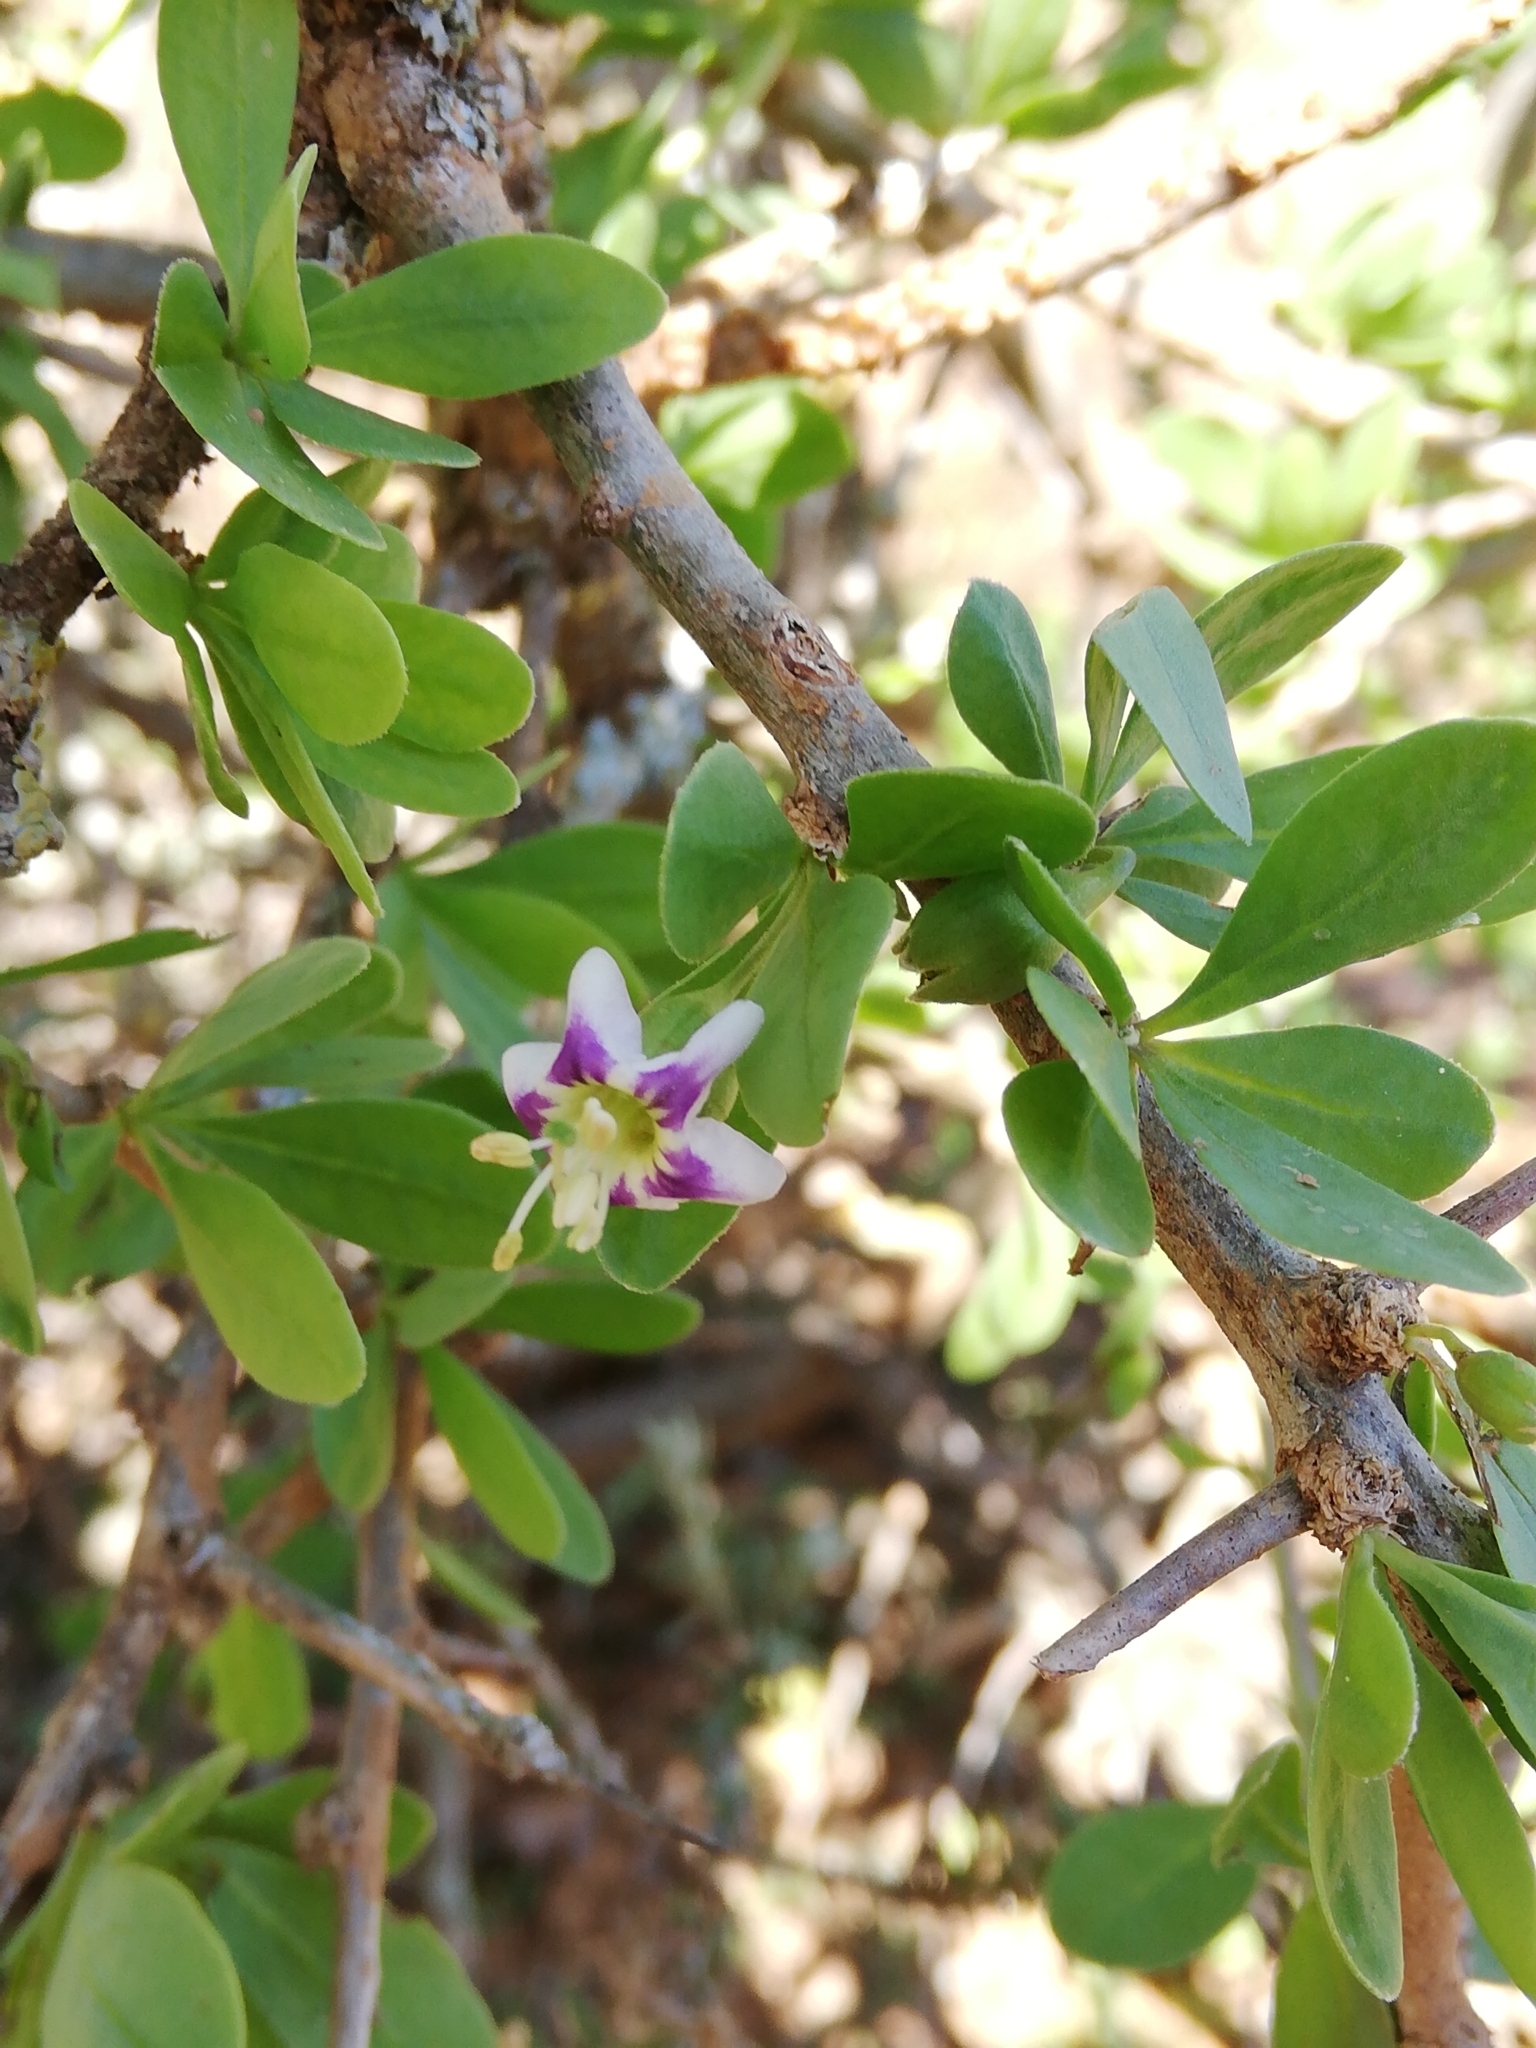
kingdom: Plantae
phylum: Tracheophyta
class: Magnoliopsida
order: Solanales
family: Solanaceae
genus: Lycium
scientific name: Lycium ferocissimum
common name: African boxthorn
